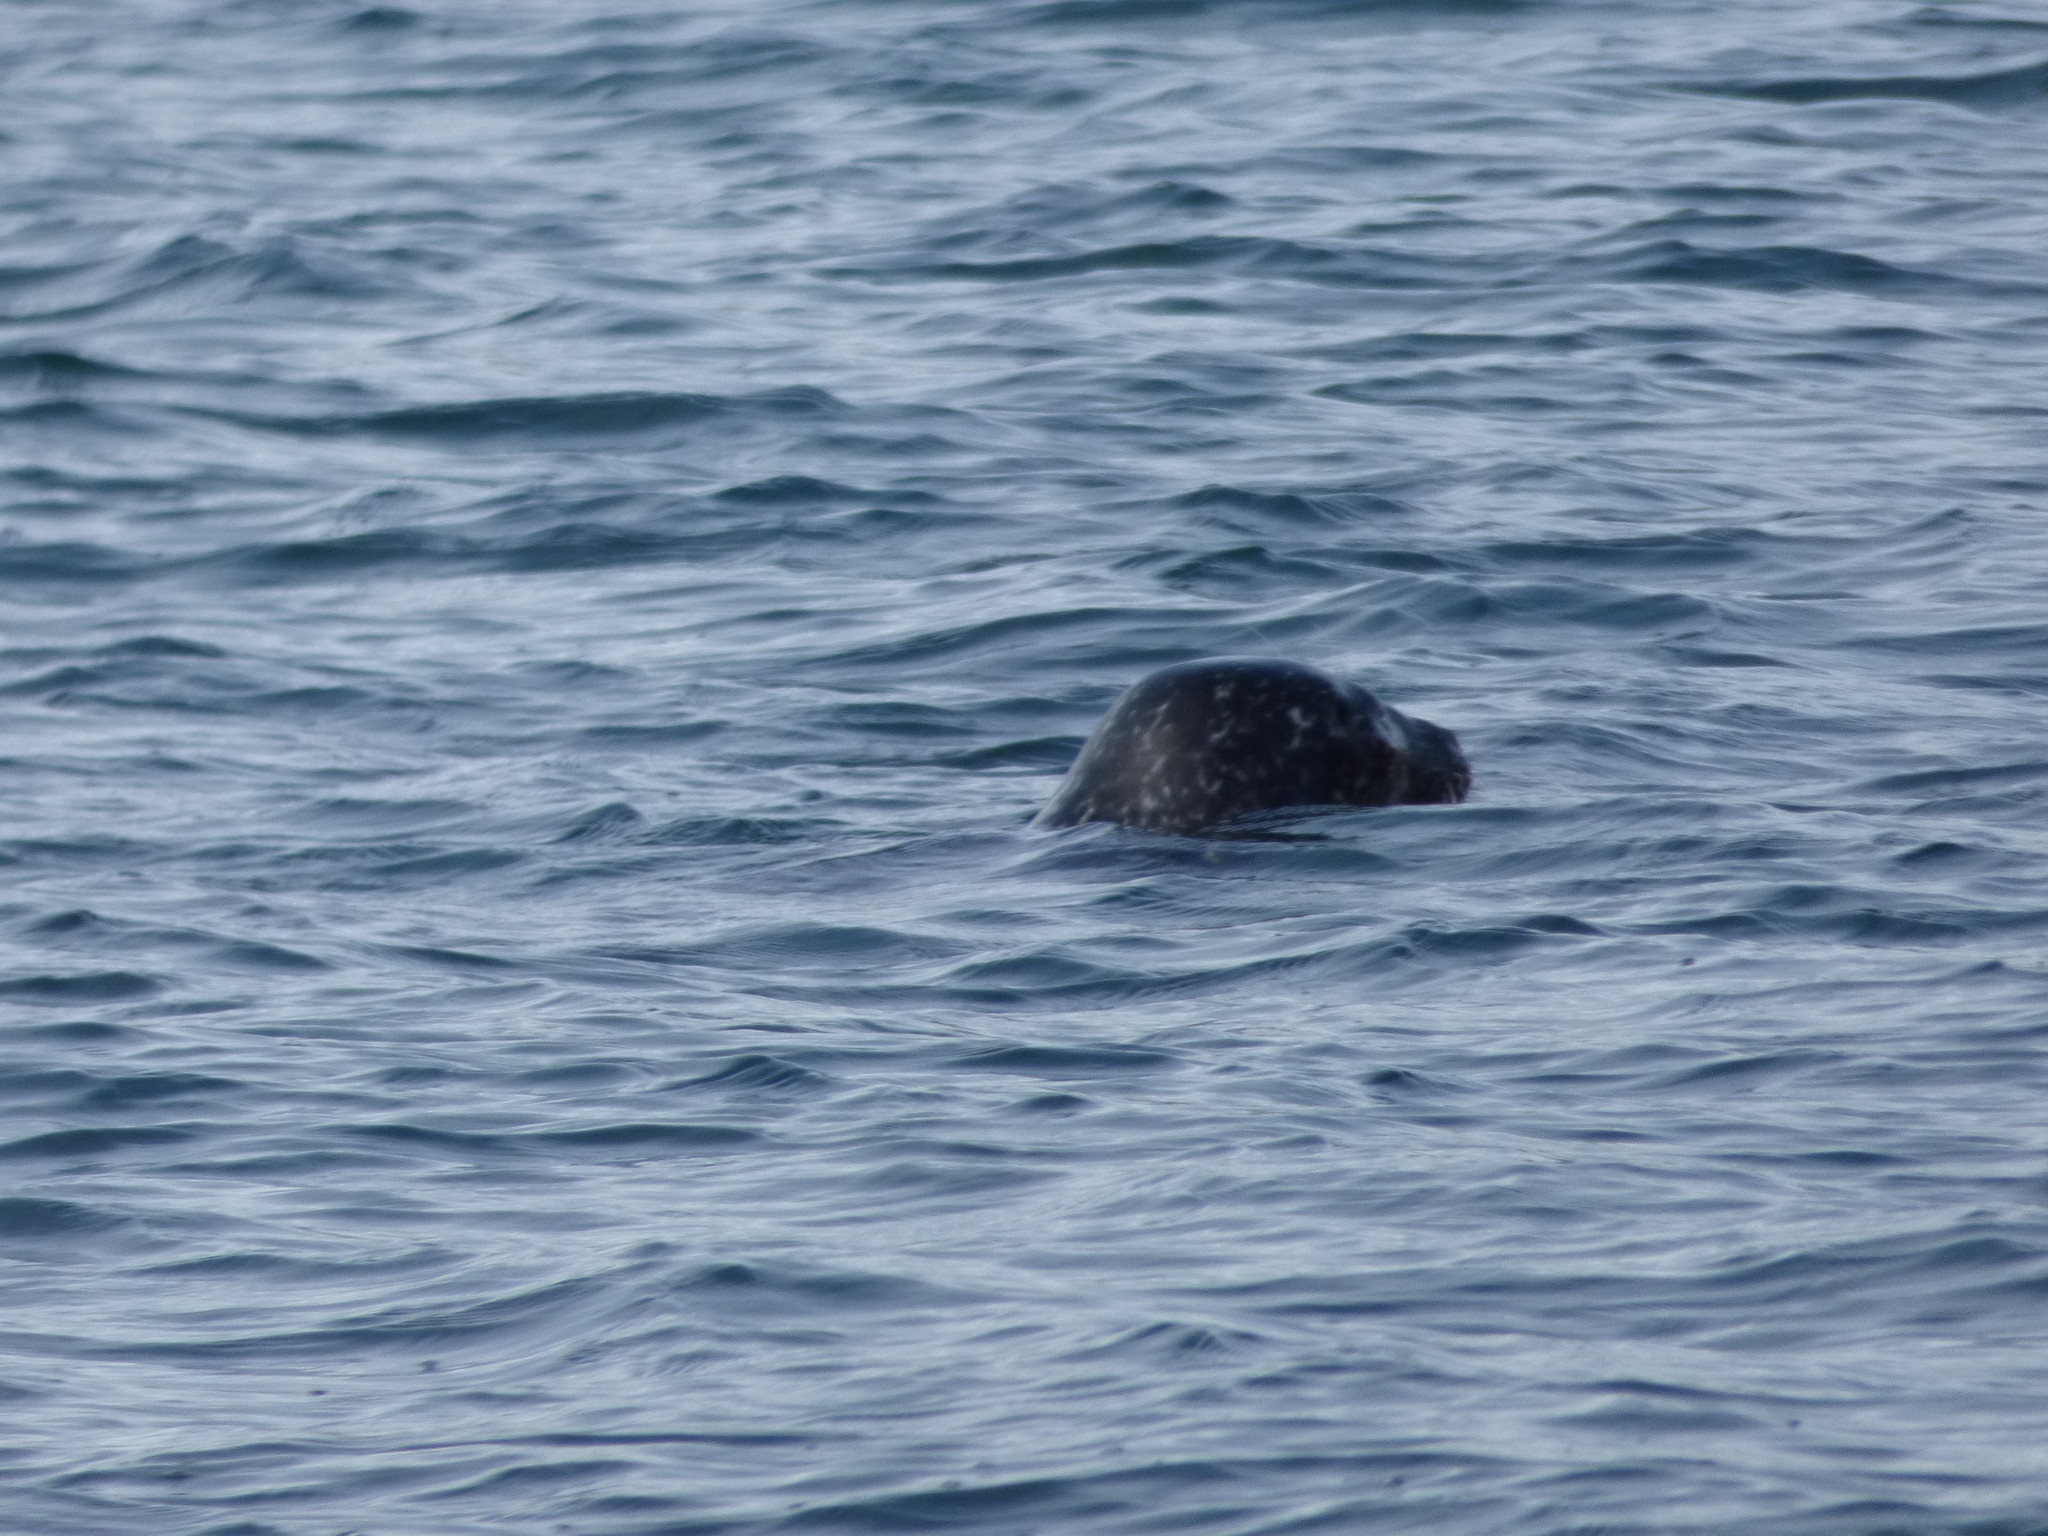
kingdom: Animalia
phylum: Chordata
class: Mammalia
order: Carnivora
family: Phocidae
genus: Phoca
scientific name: Phoca vitulina
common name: Harbor seal
